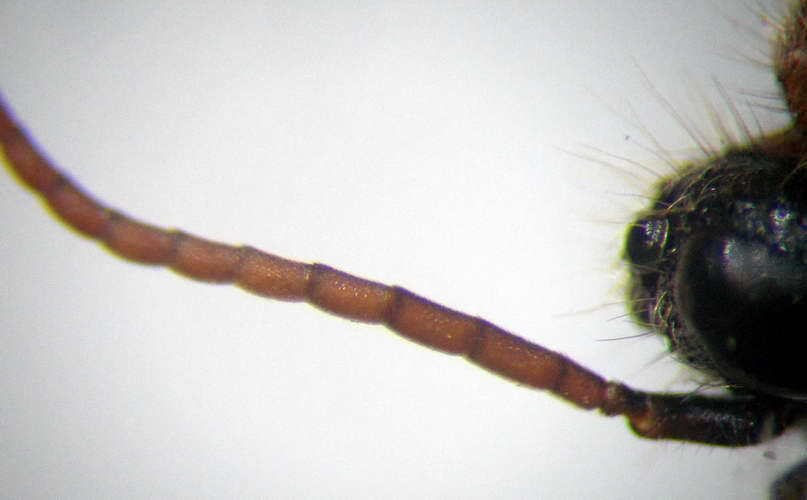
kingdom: Animalia
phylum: Arthropoda
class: Insecta
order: Hymenoptera
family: Mutillidae
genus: Smicromyrme
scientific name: Smicromyrme rufipes
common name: Small velvet ant
